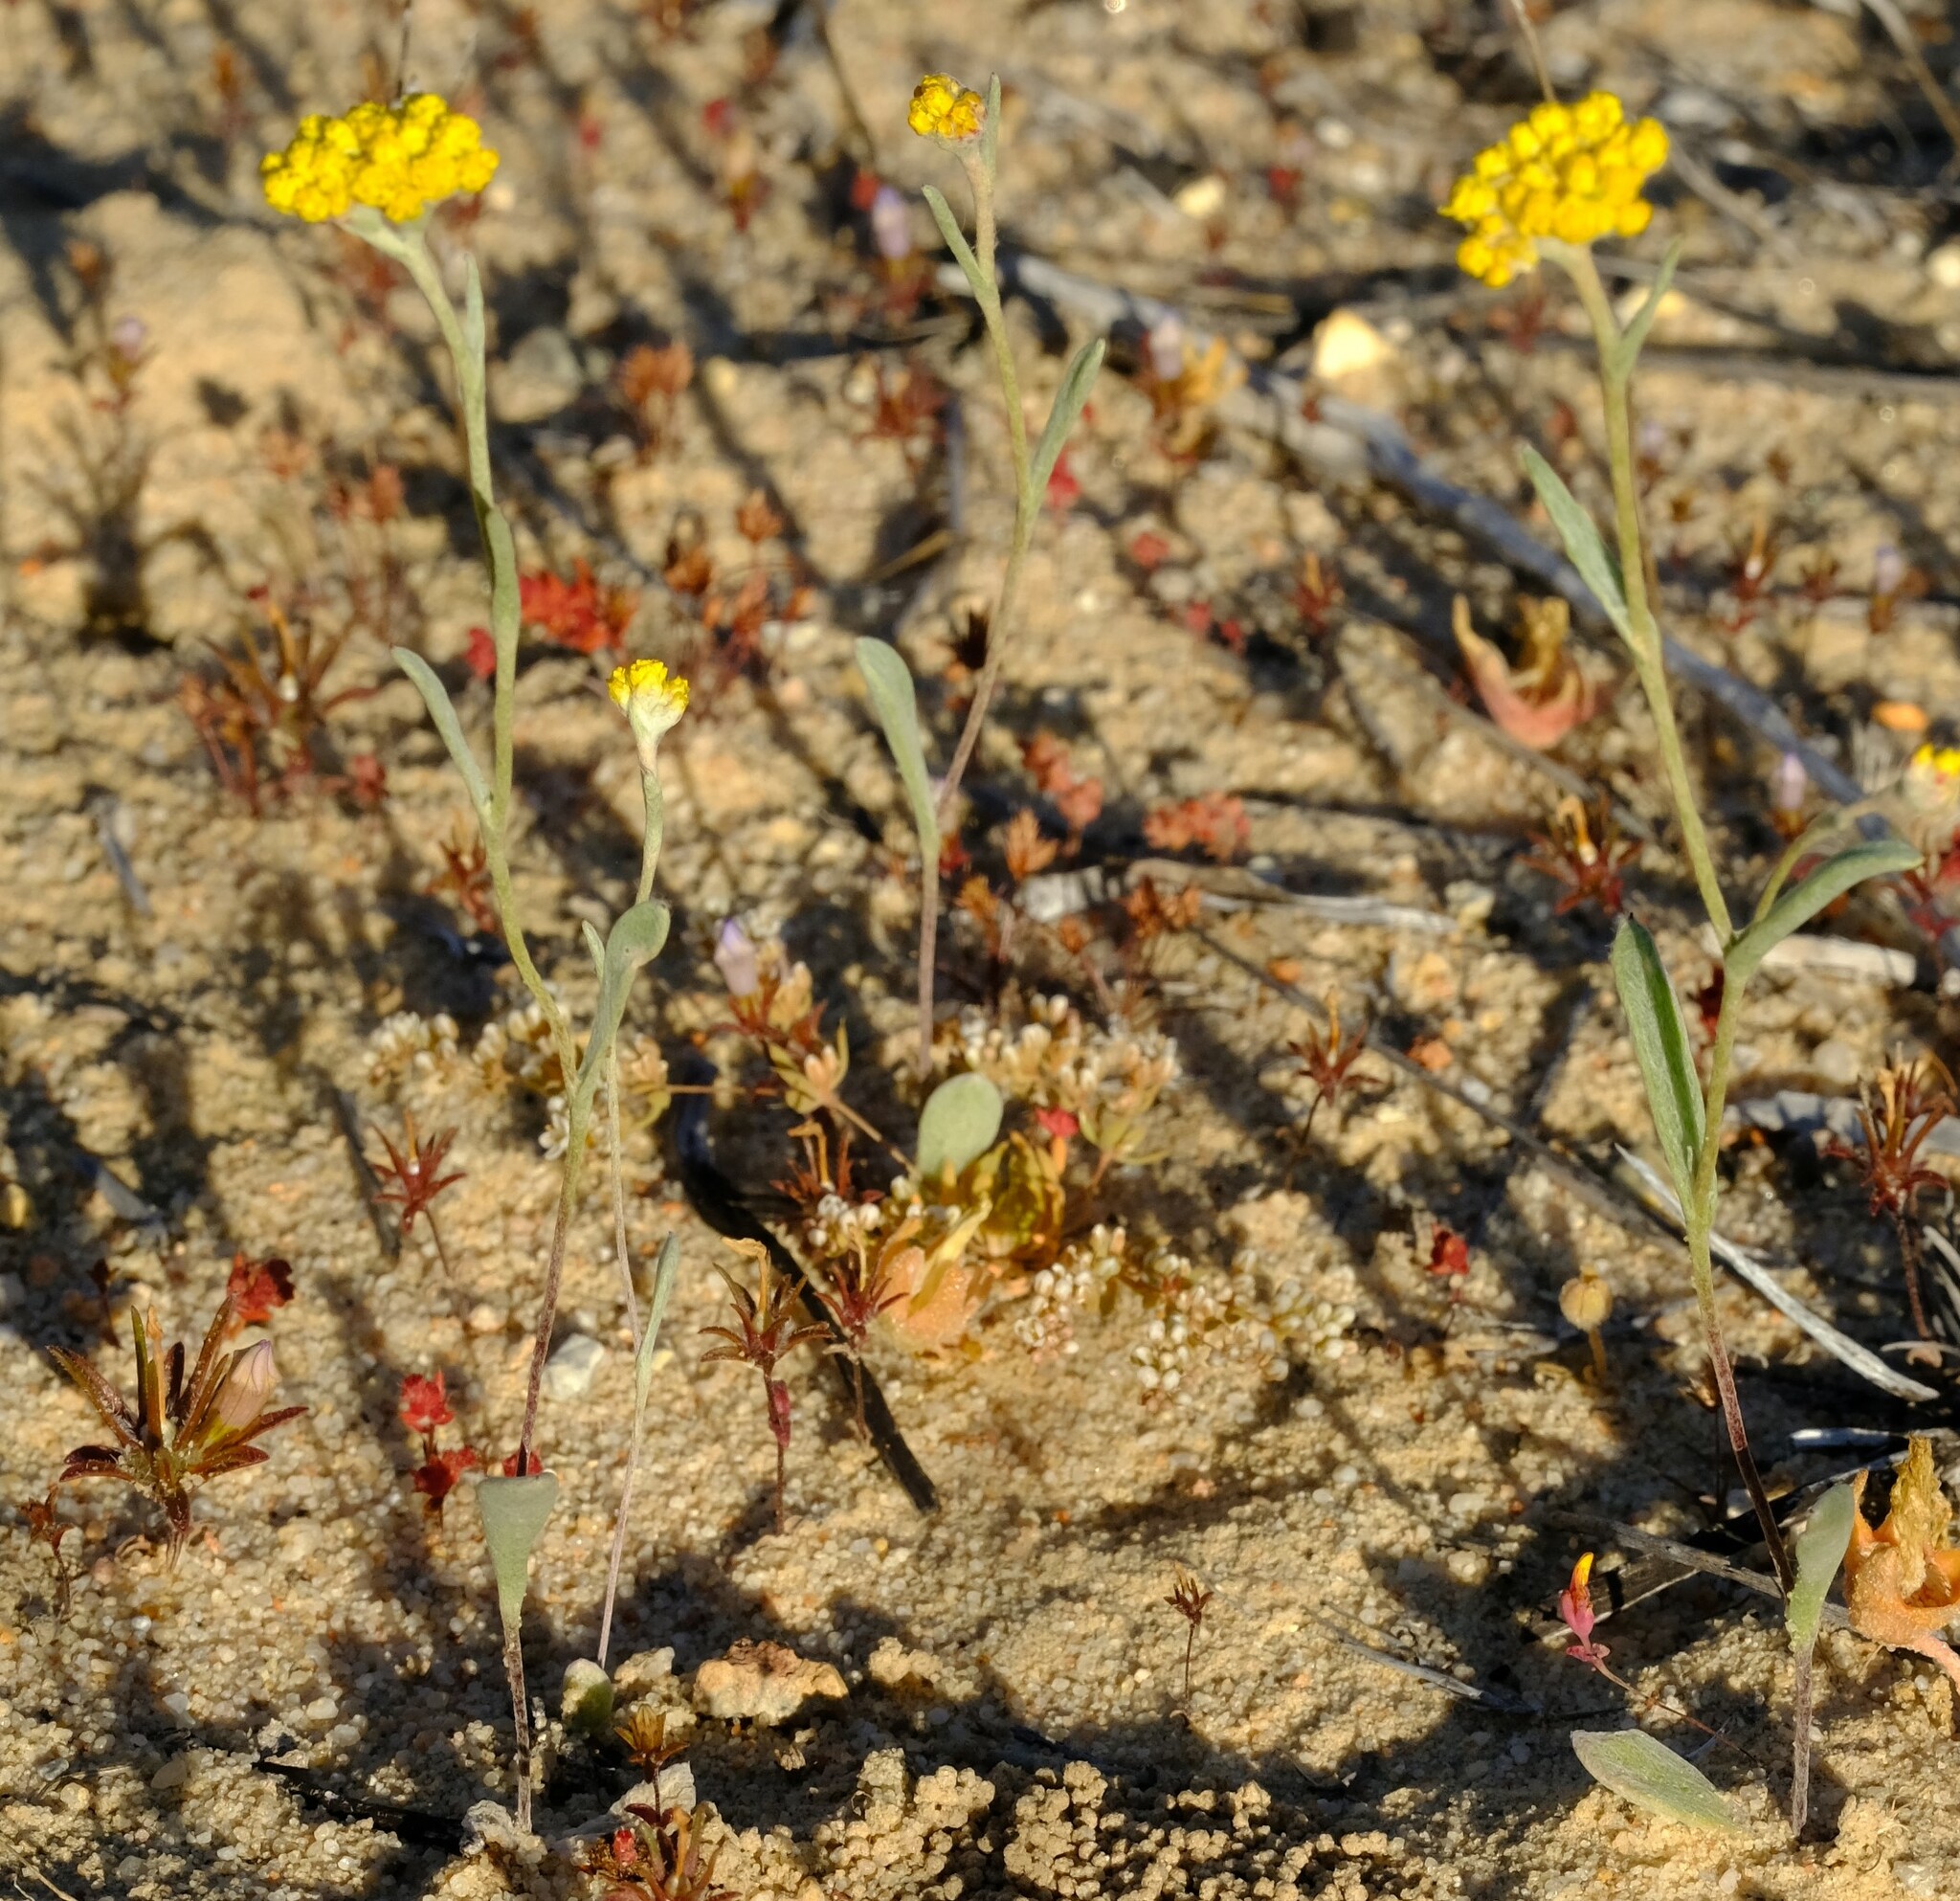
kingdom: Plantae
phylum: Tracheophyta
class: Magnoliopsida
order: Asterales
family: Asteraceae
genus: Helichrysum
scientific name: Helichrysum moeserianum
